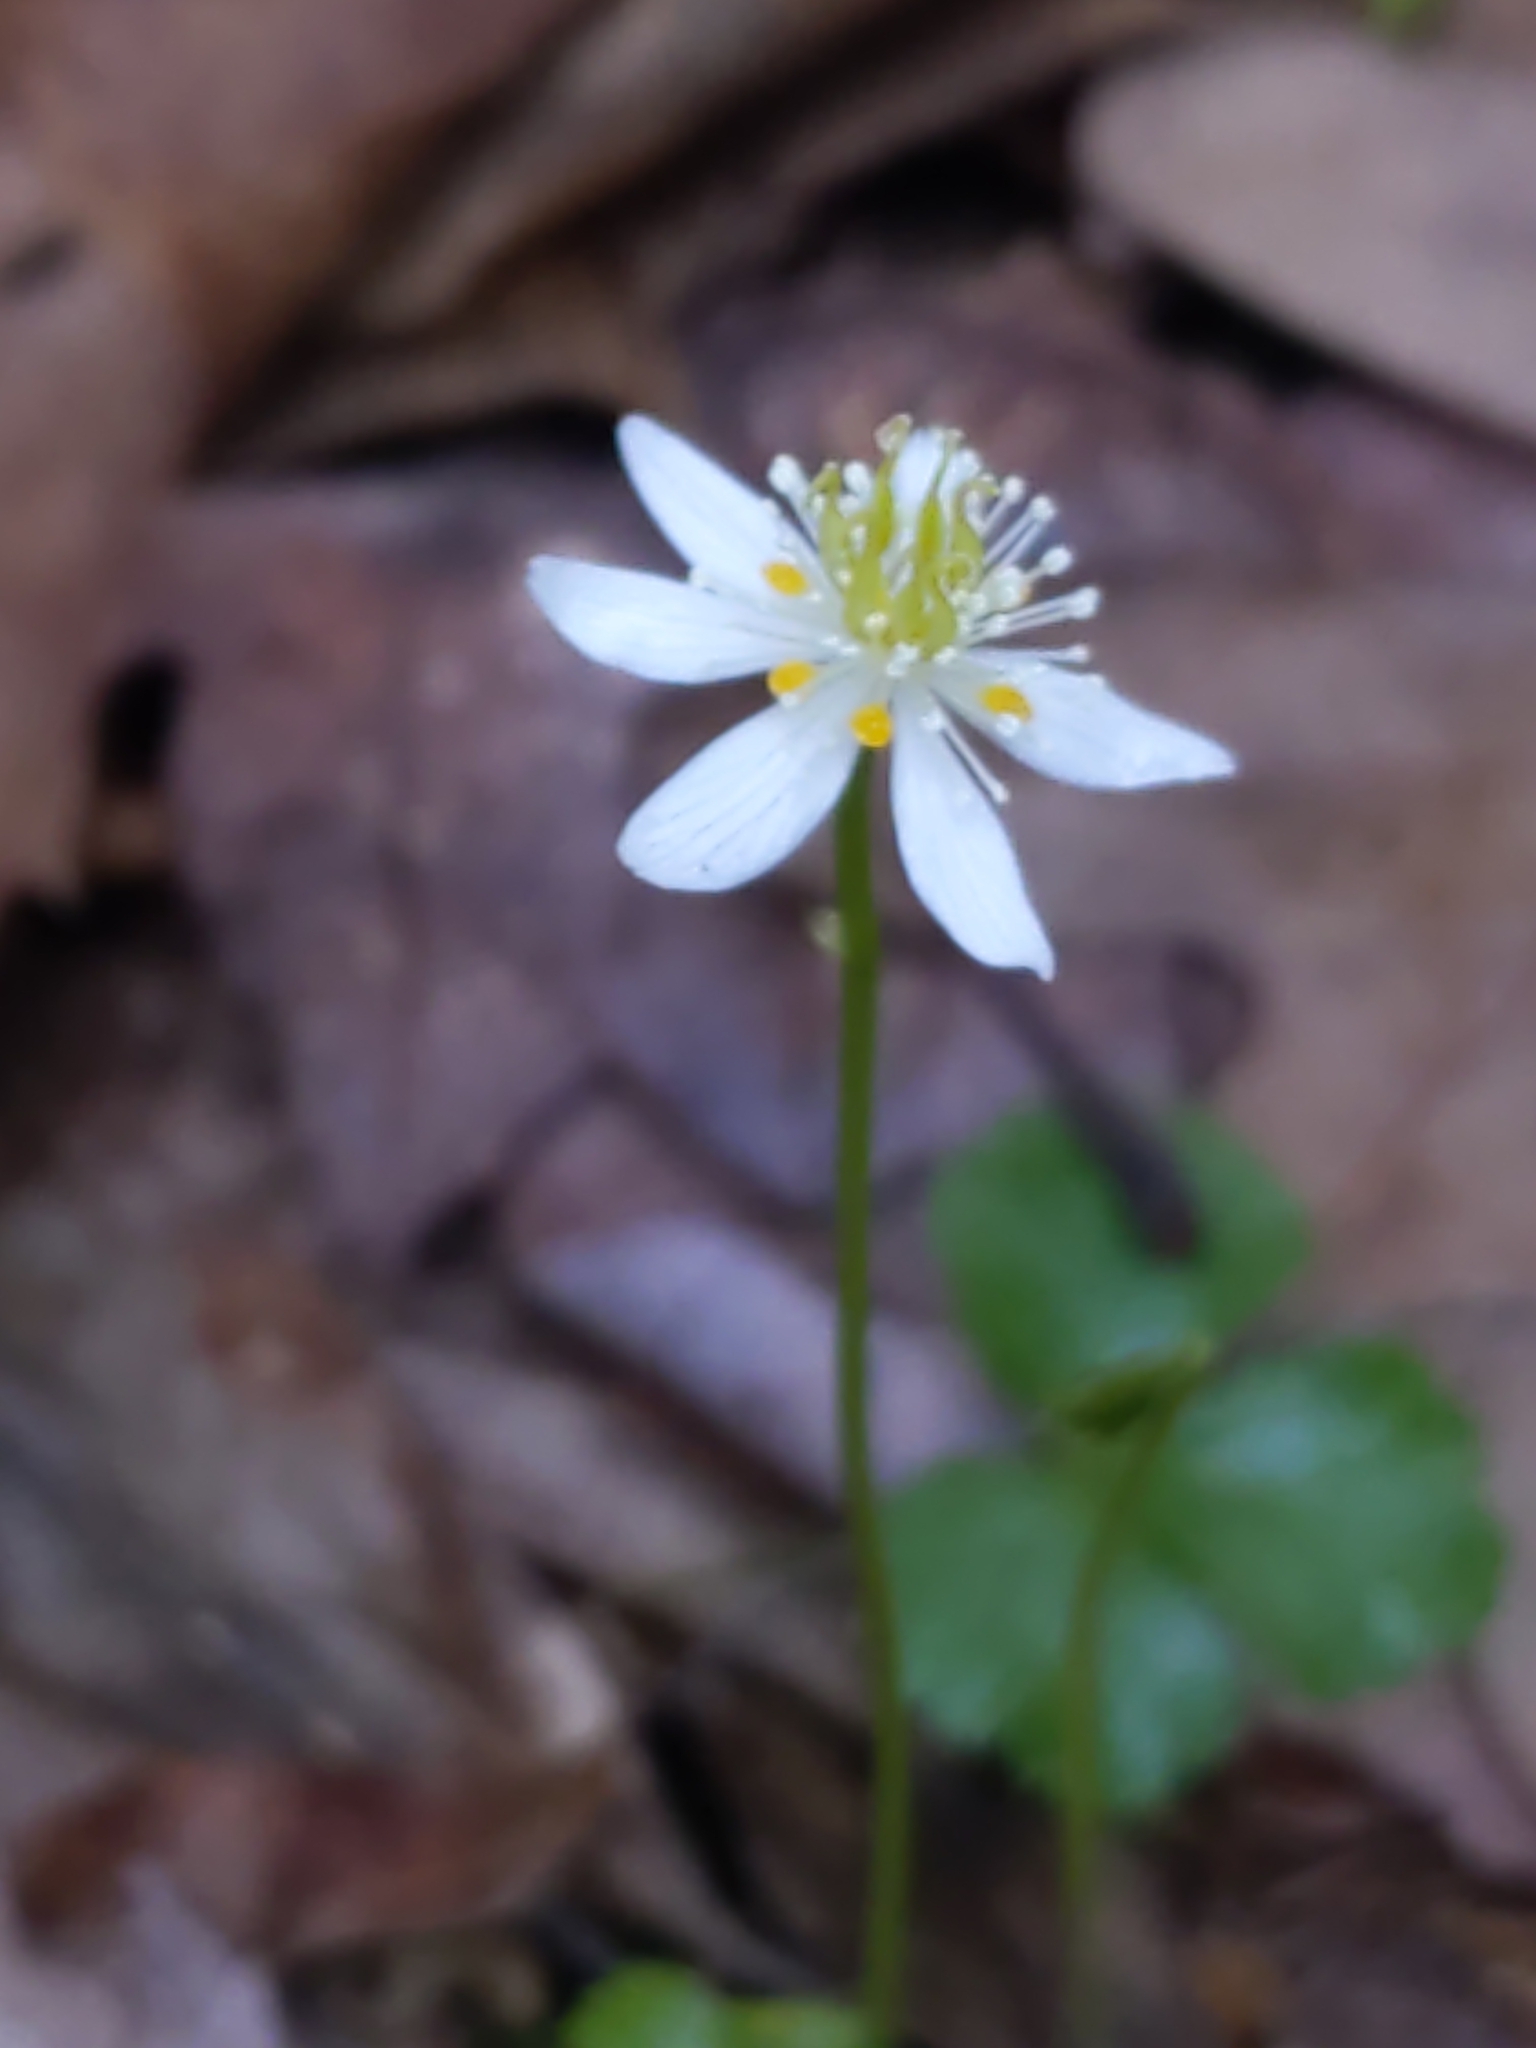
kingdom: Plantae
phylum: Tracheophyta
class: Magnoliopsida
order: Ranunculales
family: Ranunculaceae
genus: Coptis
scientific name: Coptis trifolia
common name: Canker-root
